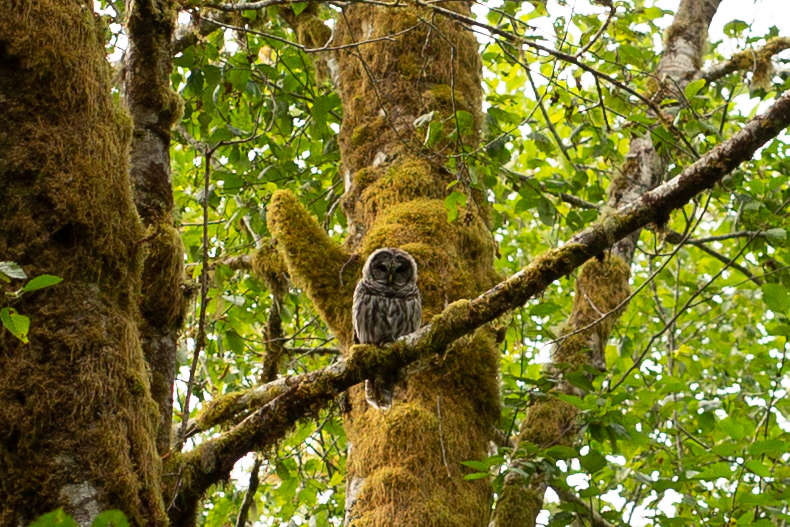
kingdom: Animalia
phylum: Chordata
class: Aves
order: Strigiformes
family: Strigidae
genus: Strix
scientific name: Strix varia
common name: Barred owl
